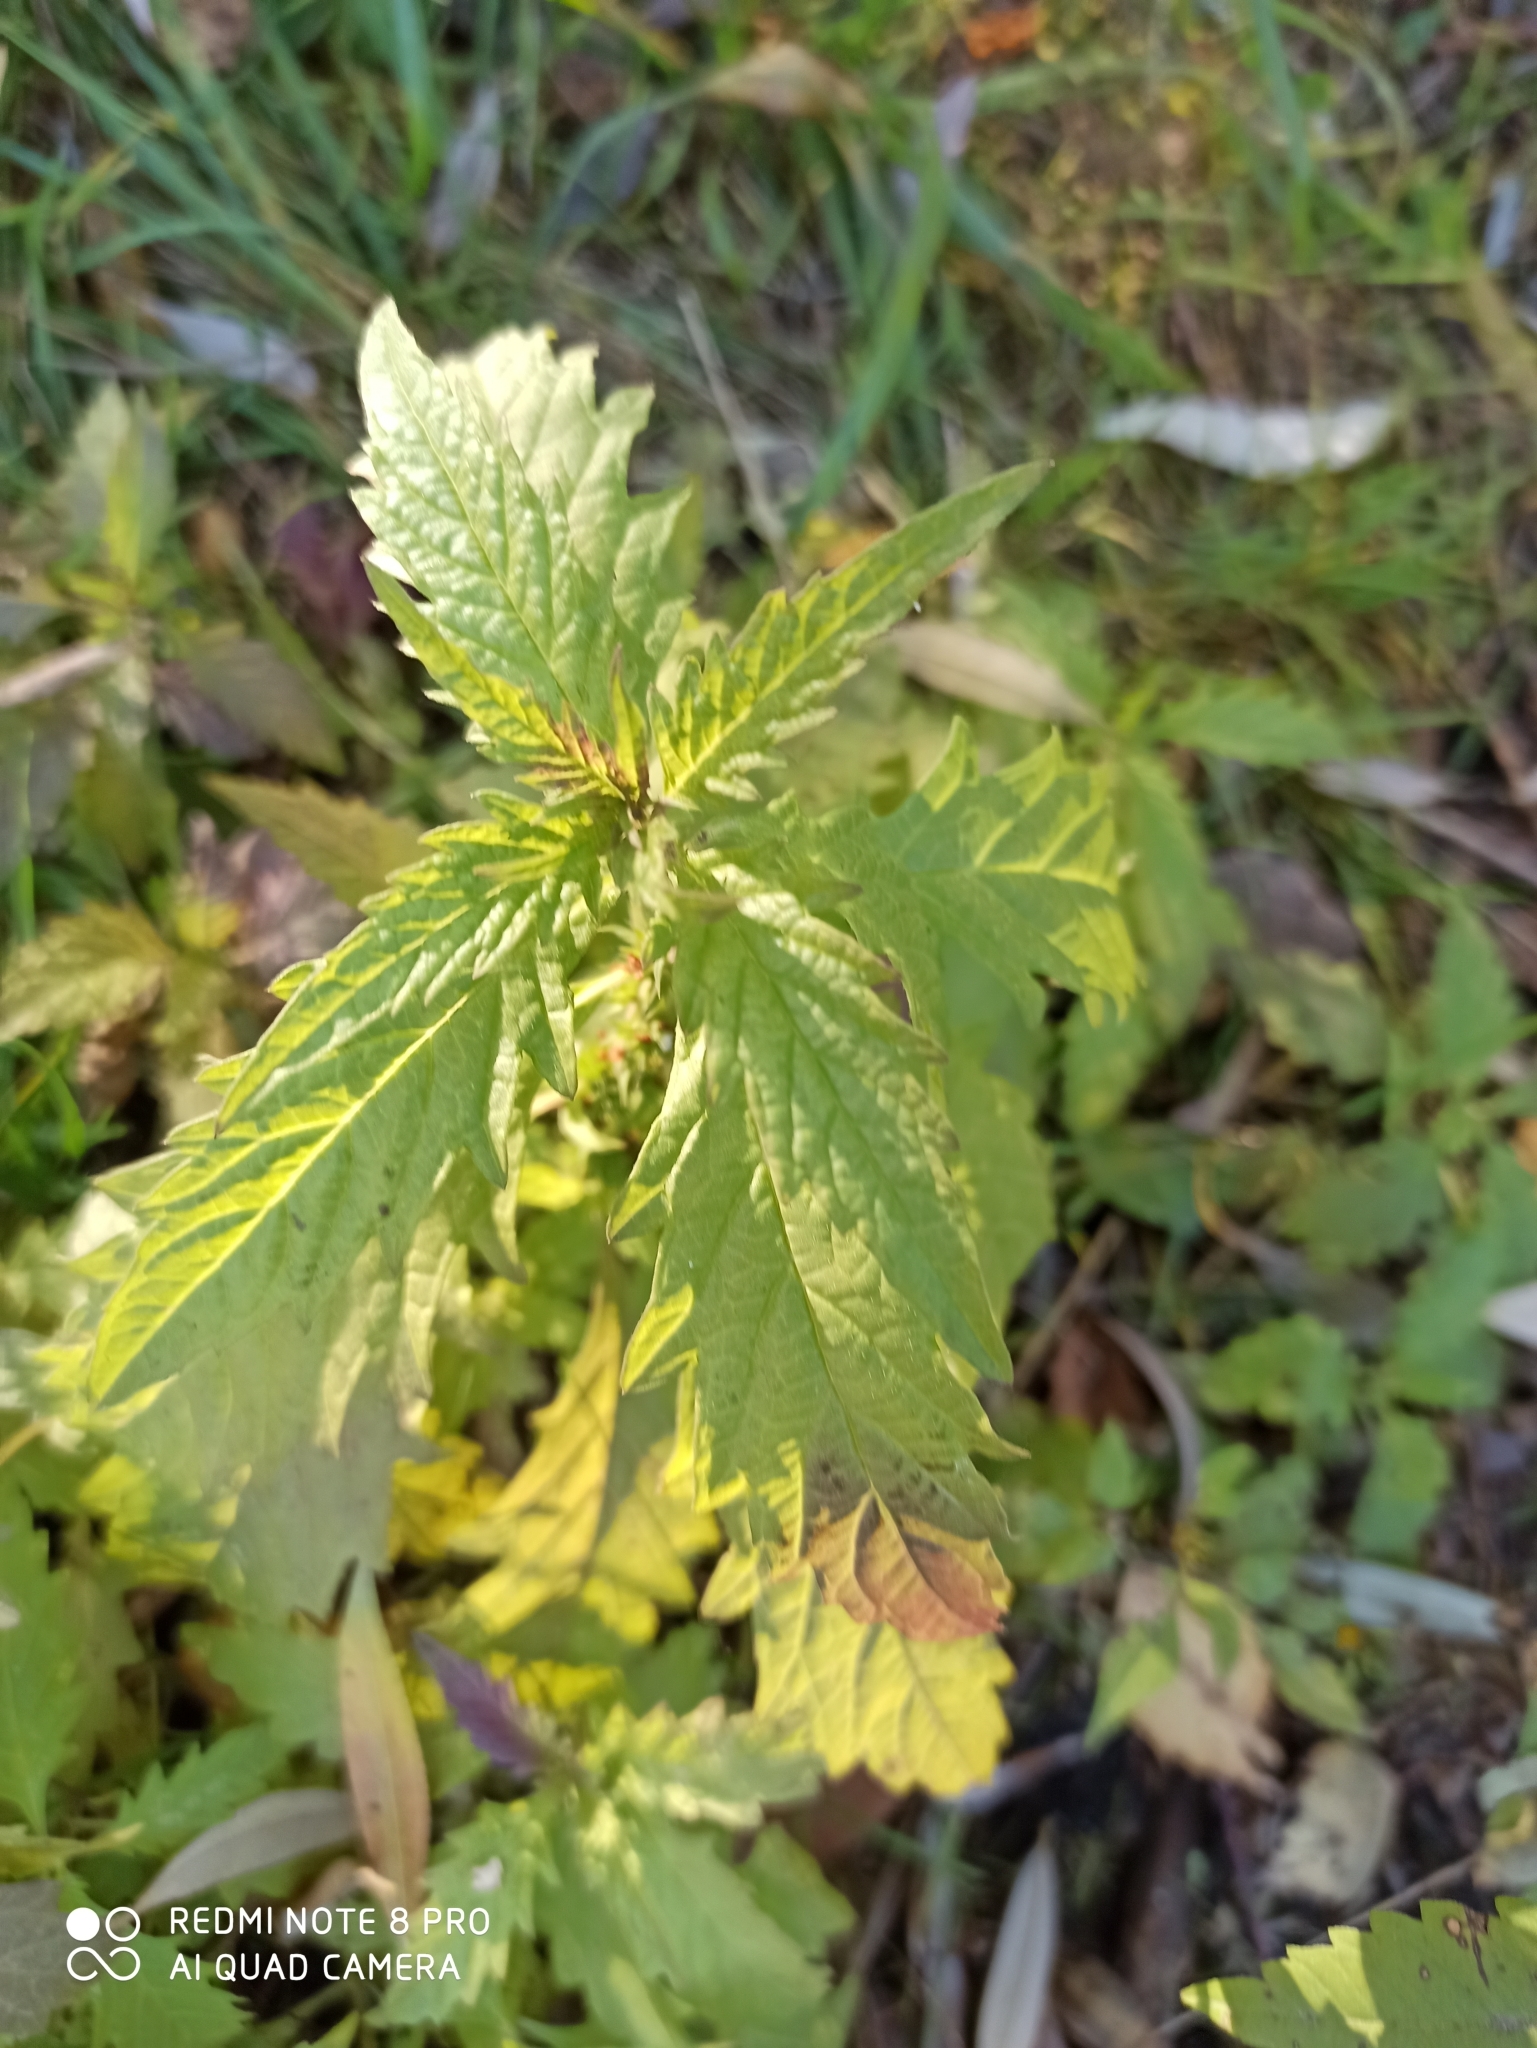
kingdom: Plantae
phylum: Tracheophyta
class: Magnoliopsida
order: Lamiales
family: Lamiaceae
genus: Lycopus
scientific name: Lycopus europaeus
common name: European bugleweed
